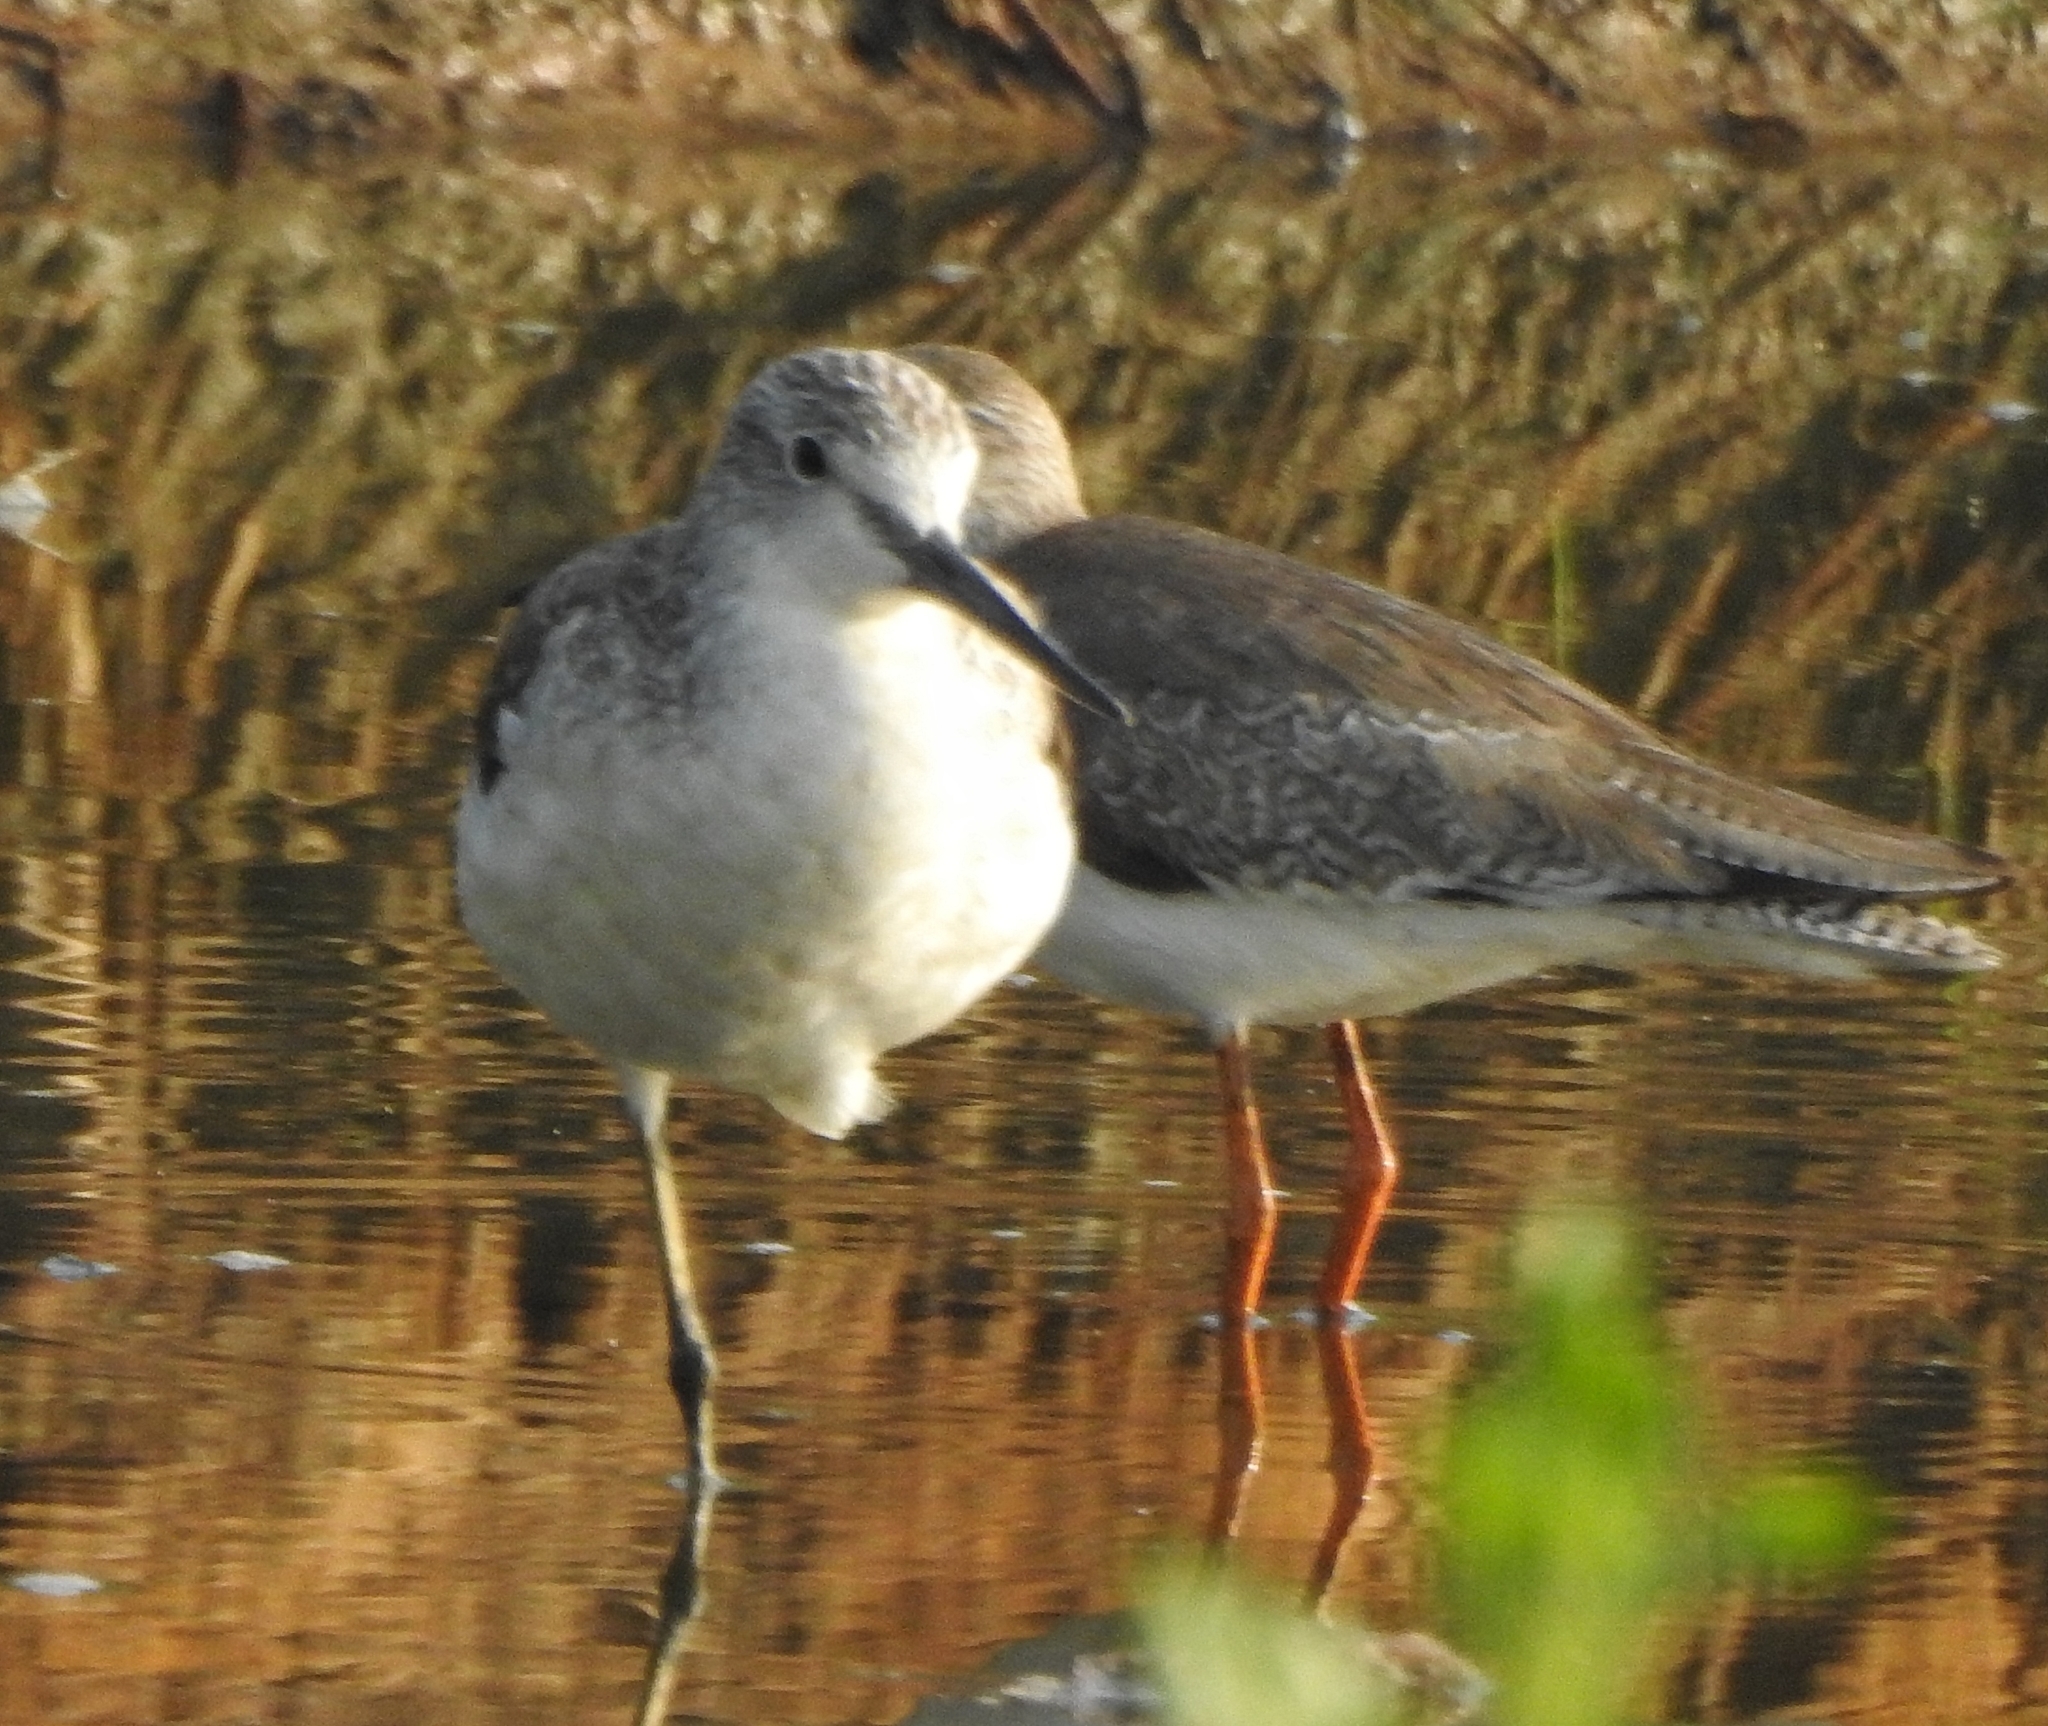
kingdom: Animalia
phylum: Chordata
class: Aves
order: Charadriiformes
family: Scolopacidae
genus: Tringa
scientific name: Tringa stagnatilis
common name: Marsh sandpiper
